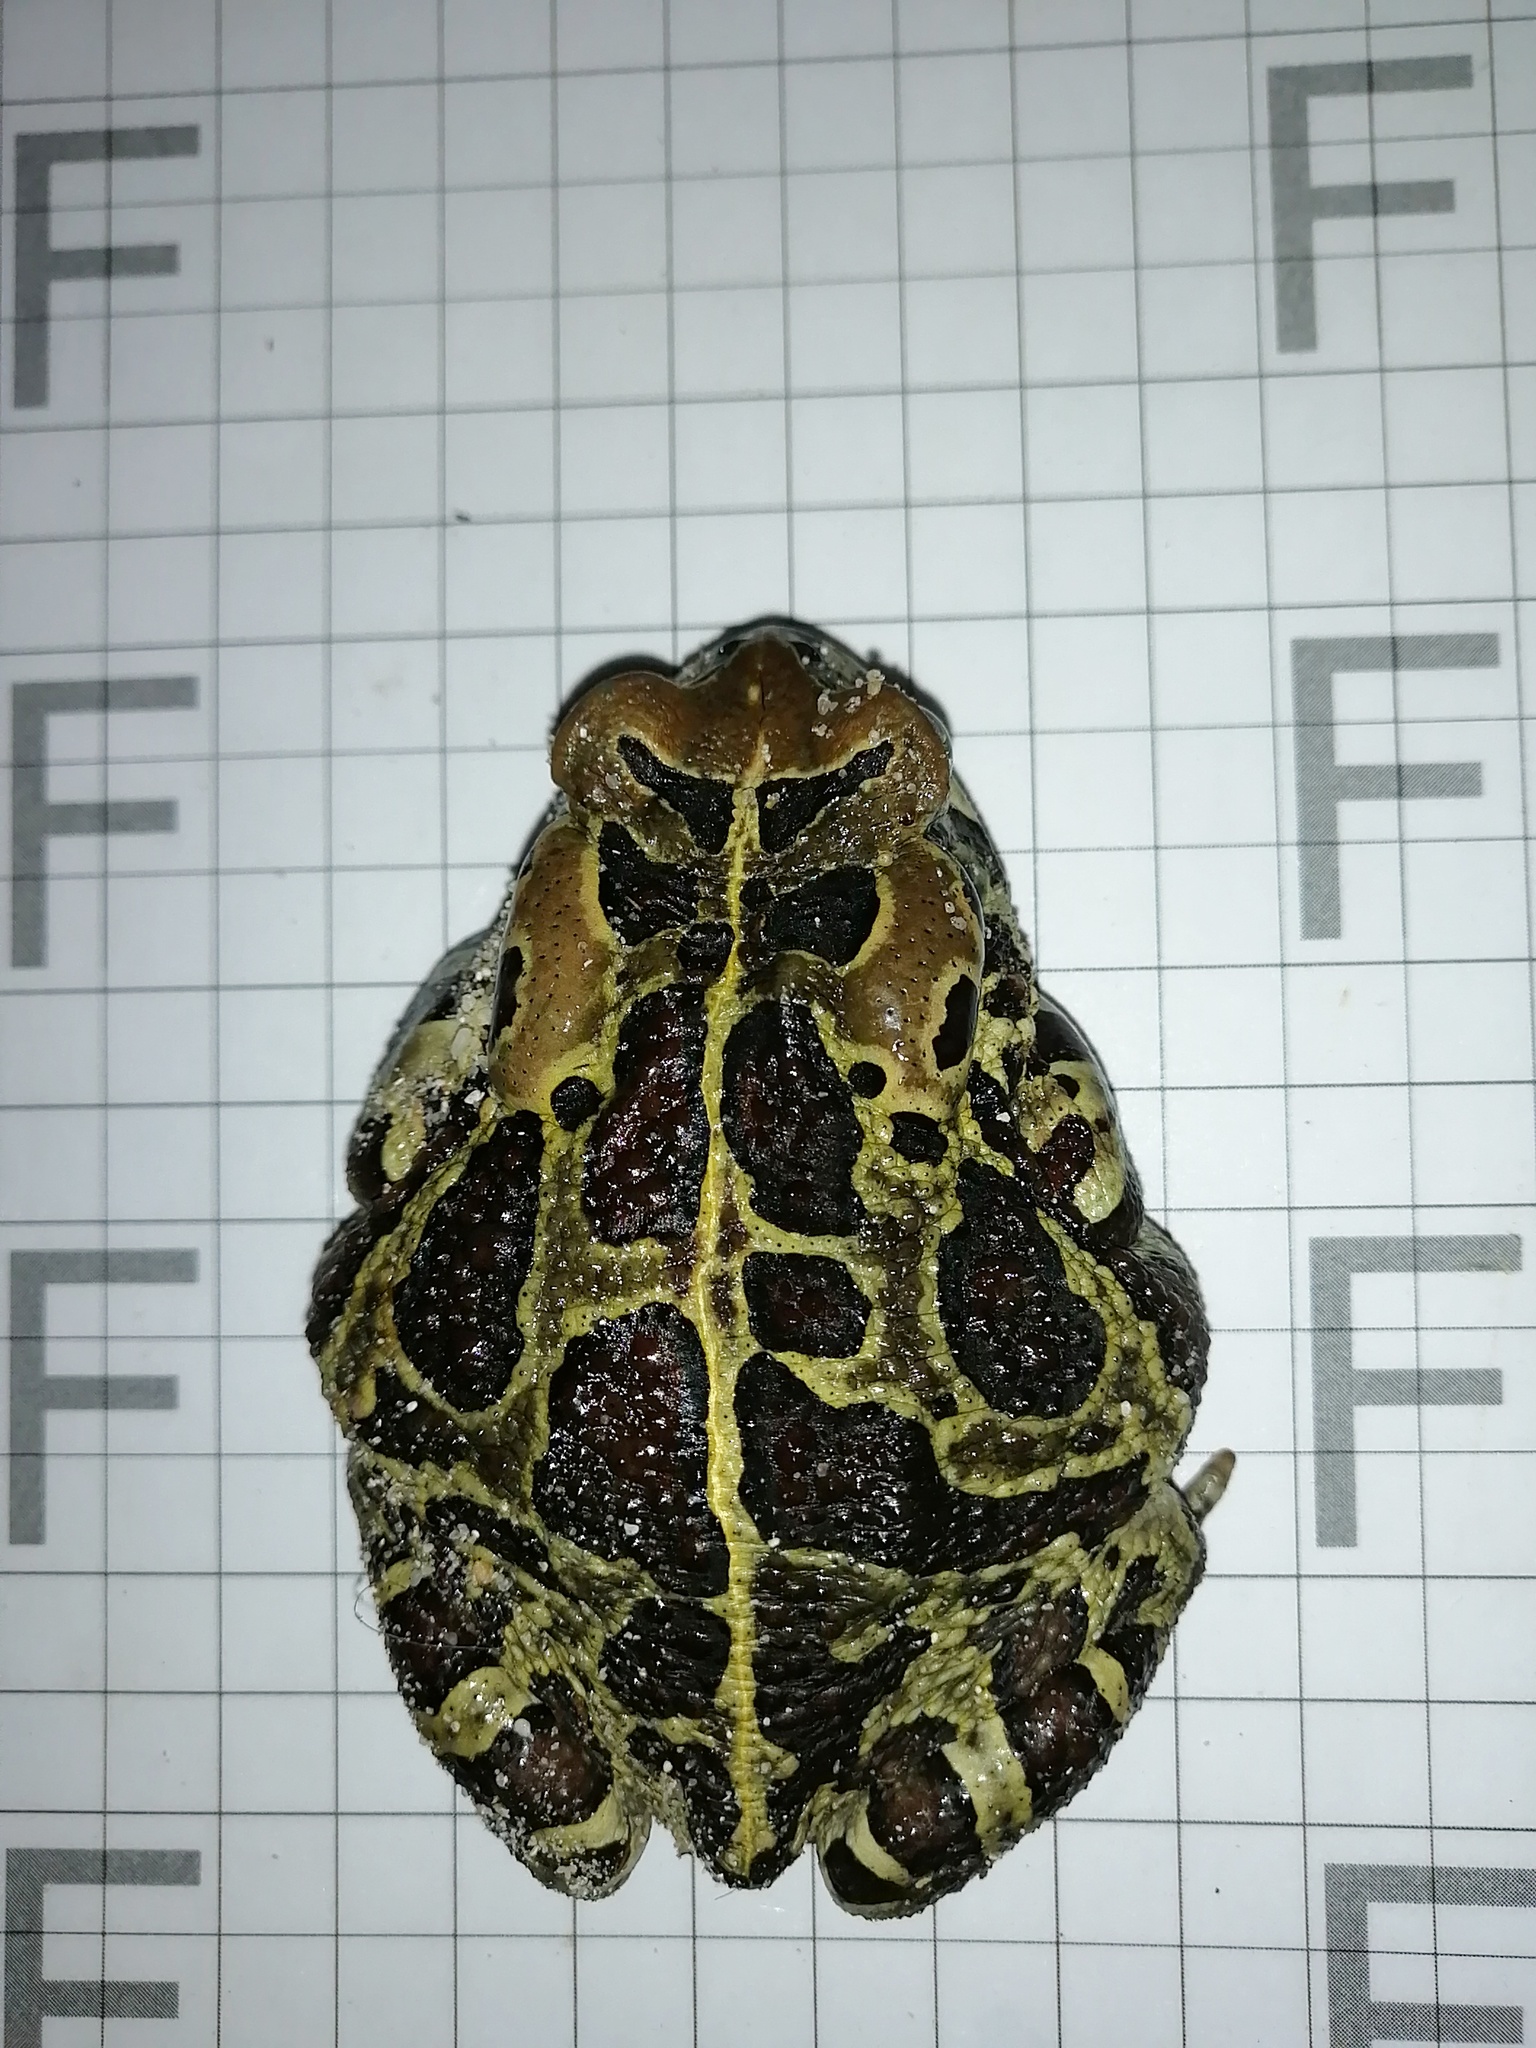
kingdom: Animalia
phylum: Chordata
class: Amphibia
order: Anura
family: Bufonidae
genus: Sclerophrys
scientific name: Sclerophrys pantherina
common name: Panther toad
